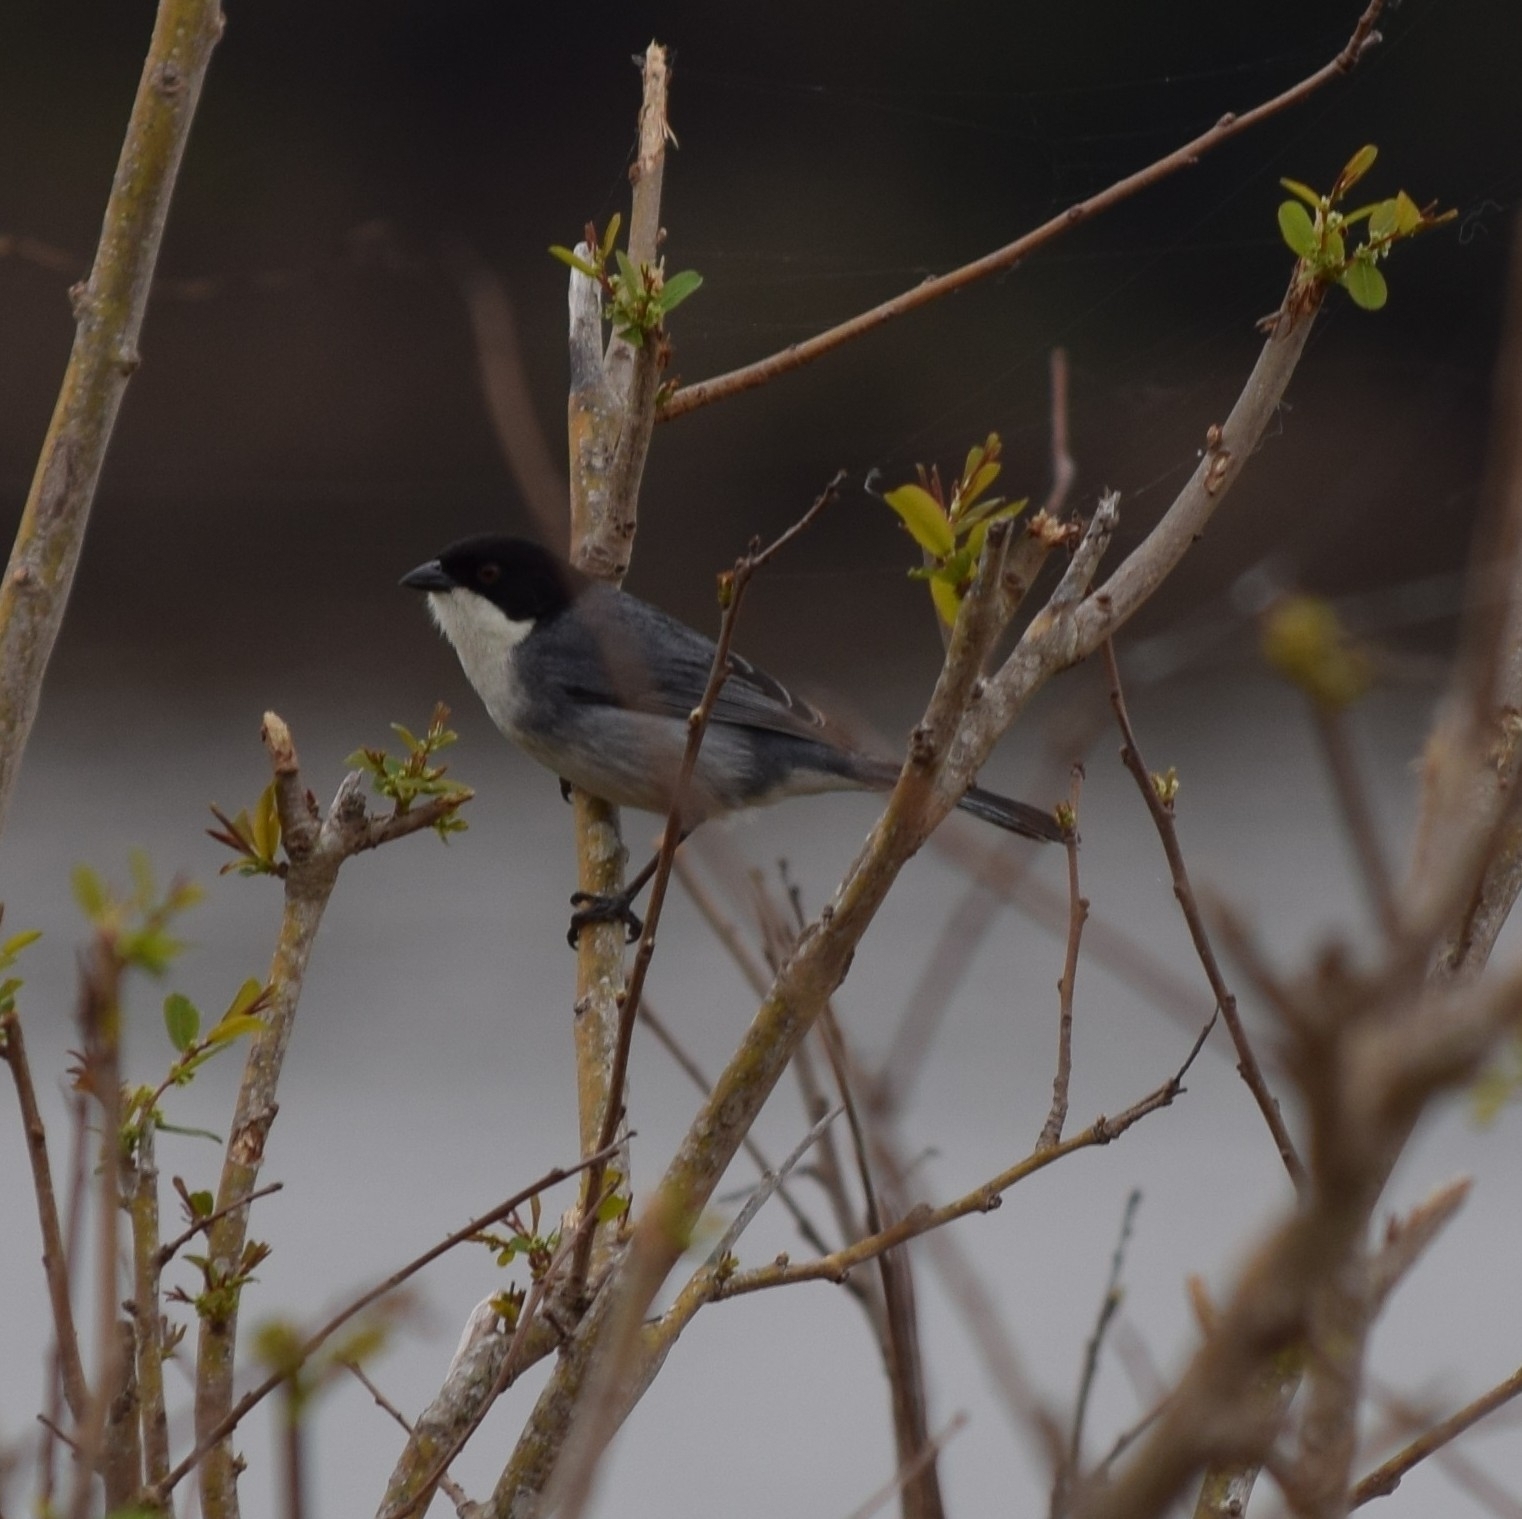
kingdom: Animalia
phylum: Chordata
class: Aves
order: Passeriformes
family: Thraupidae
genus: Microspingus
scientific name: Microspingus melanoleucus
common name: Black-capped warbling-finch
